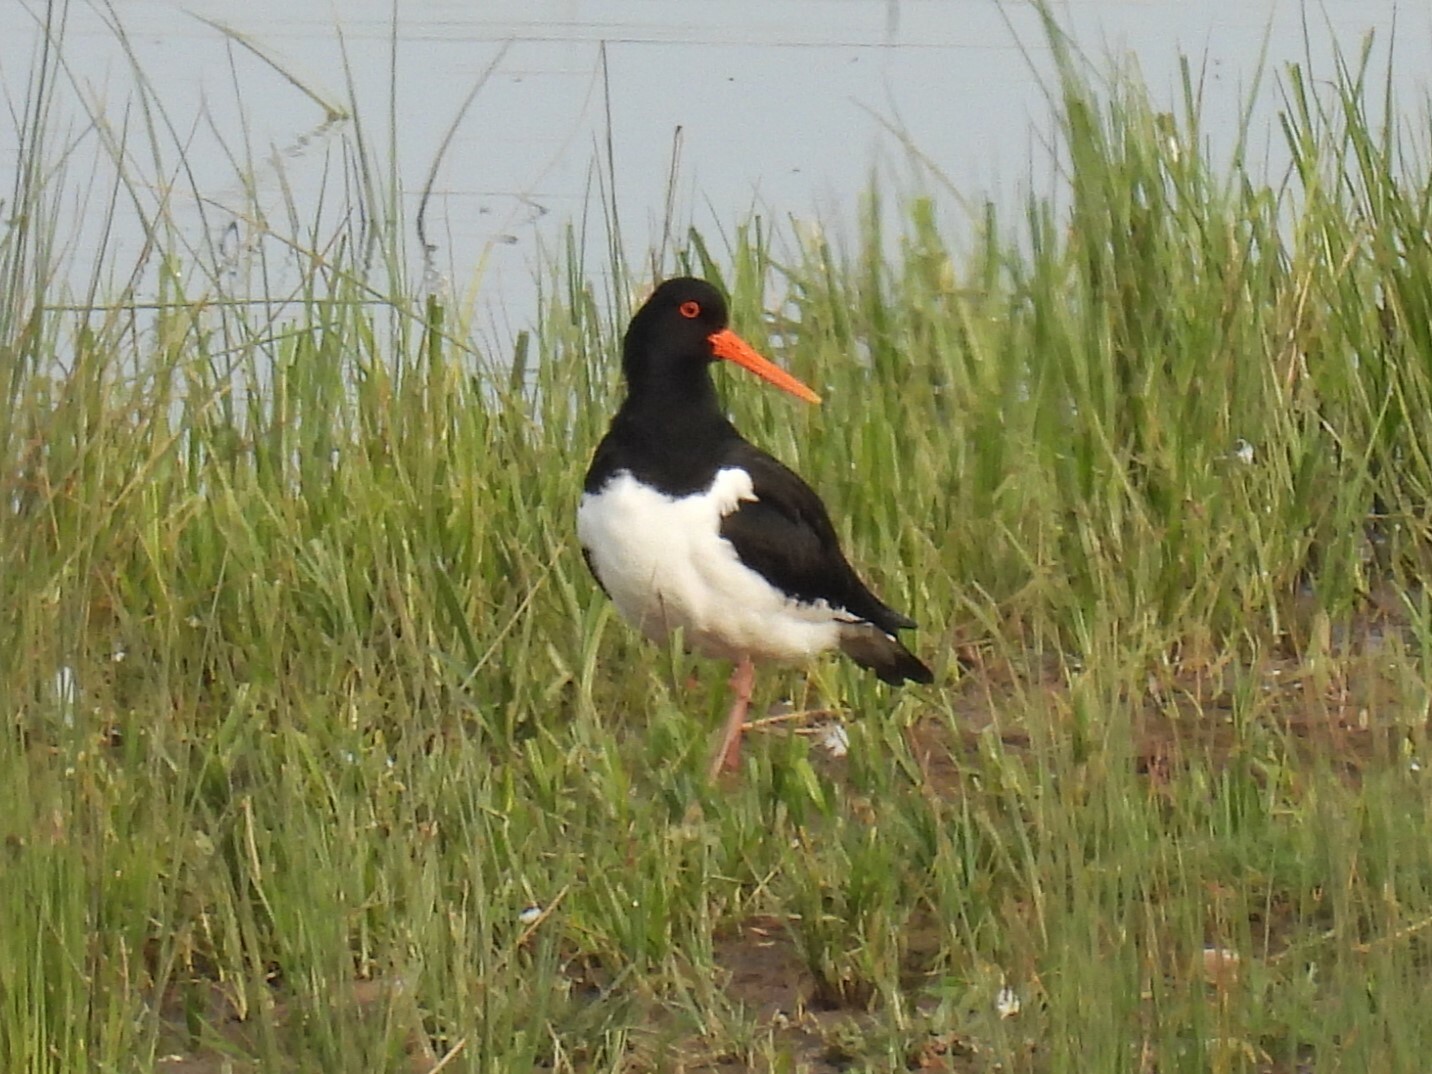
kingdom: Animalia
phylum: Chordata
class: Aves
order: Charadriiformes
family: Haematopodidae
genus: Haematopus
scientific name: Haematopus ostralegus
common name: Eurasian oystercatcher
